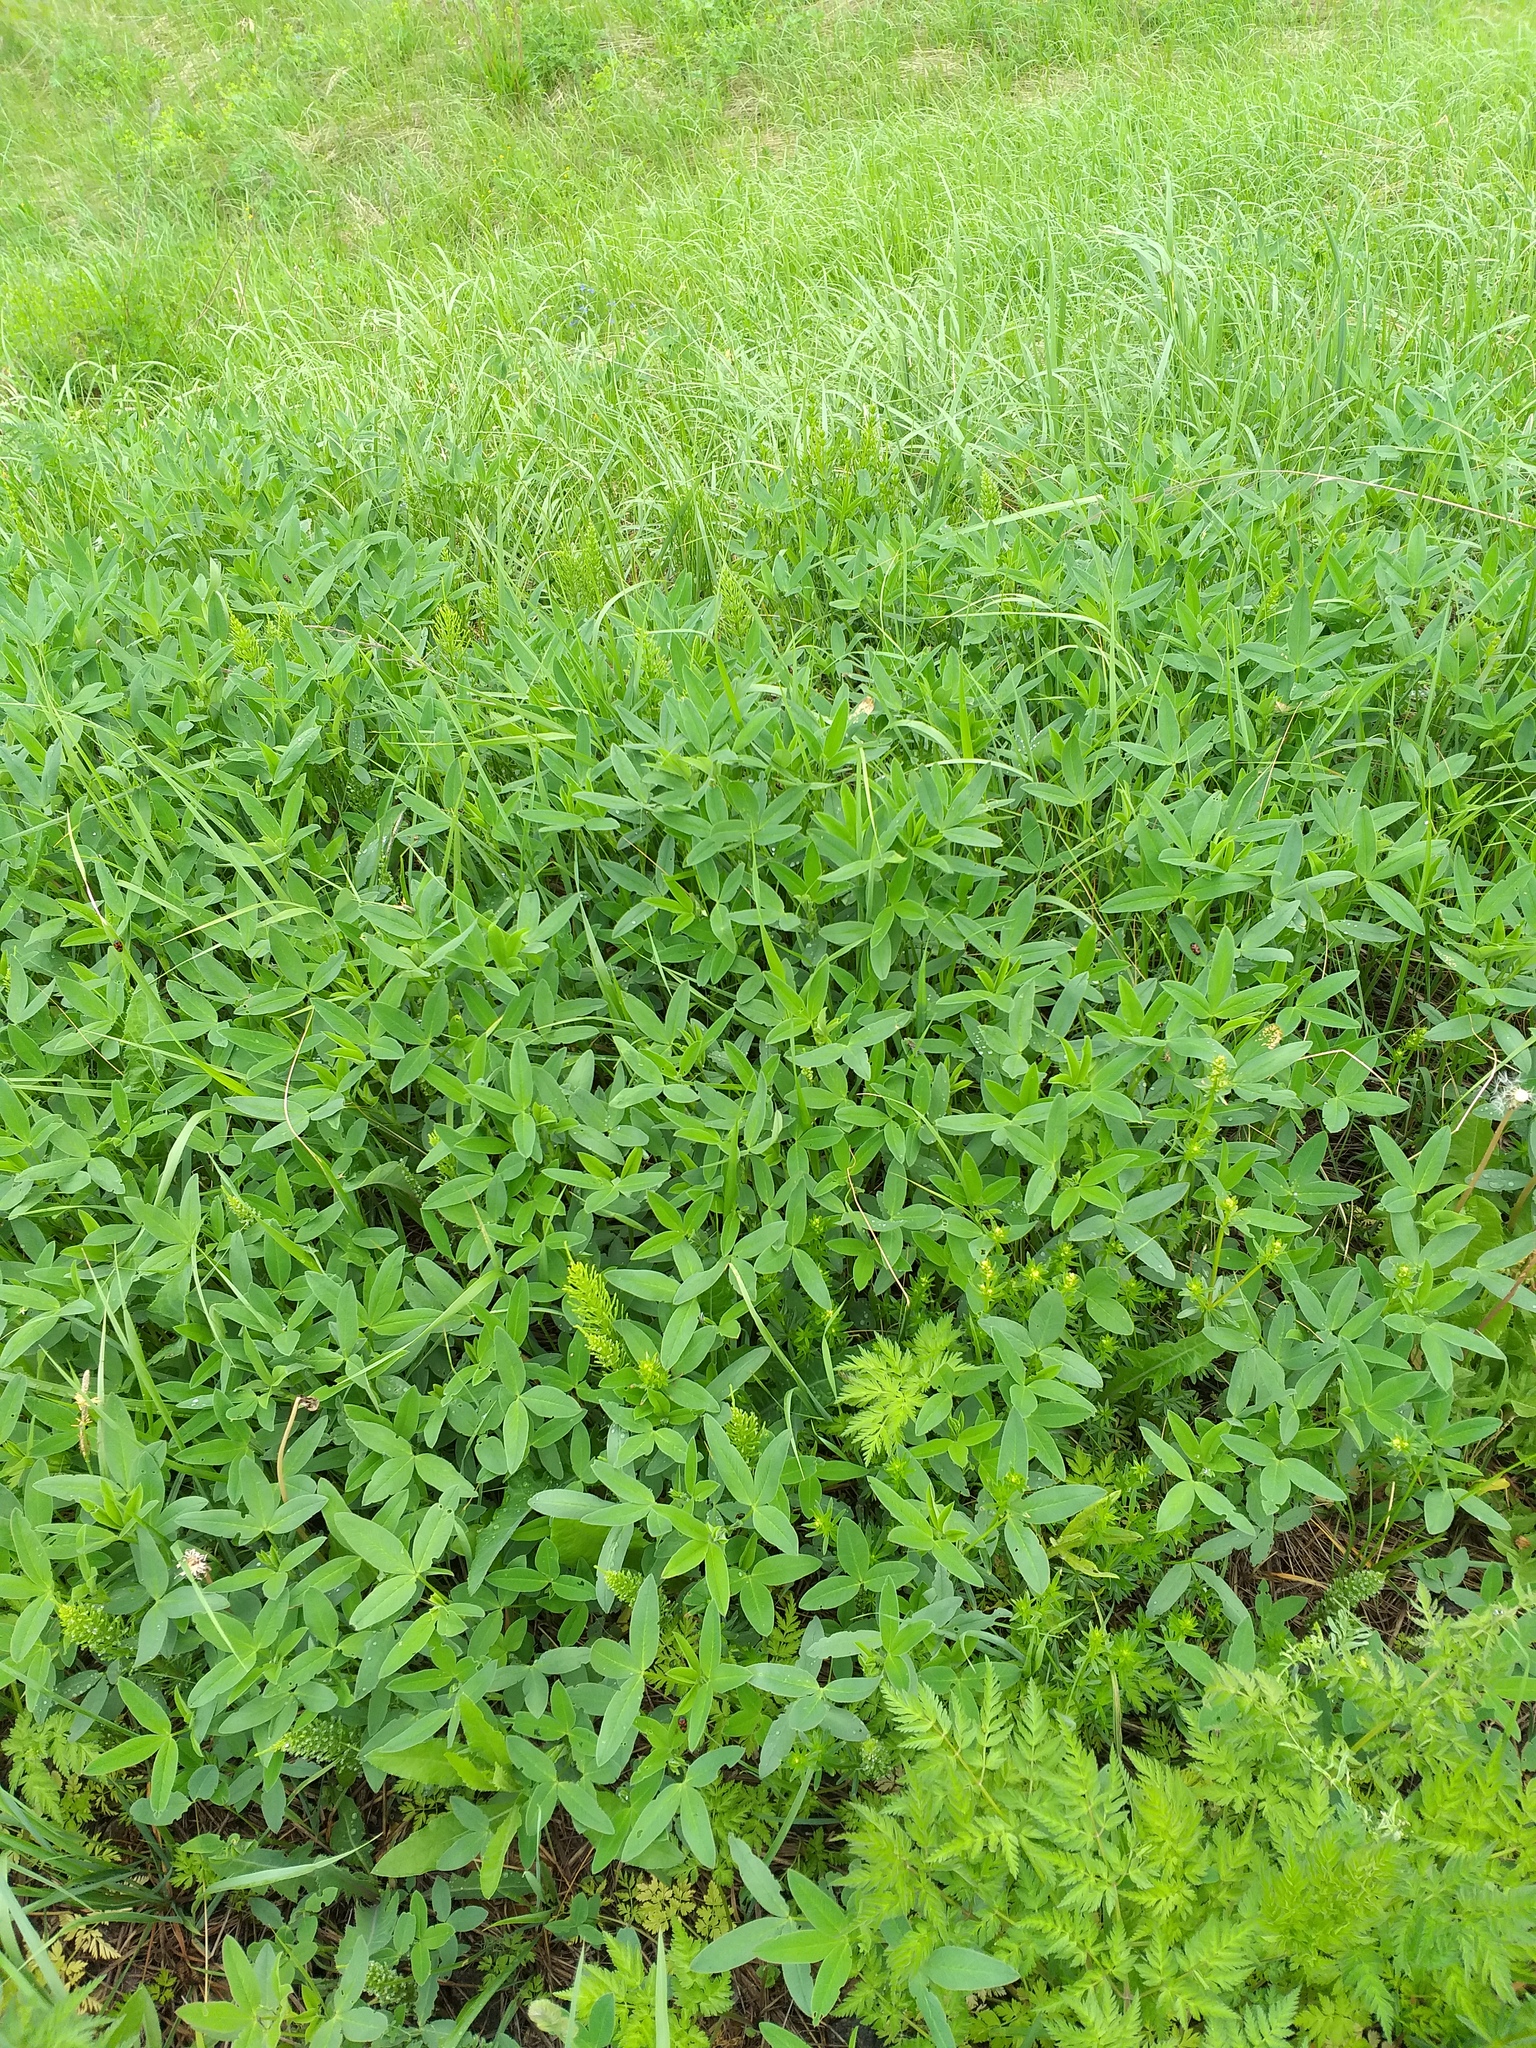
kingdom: Plantae
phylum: Tracheophyta
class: Magnoliopsida
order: Fabales
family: Fabaceae
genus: Trifolium
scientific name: Trifolium medium
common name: Zigzag clover
